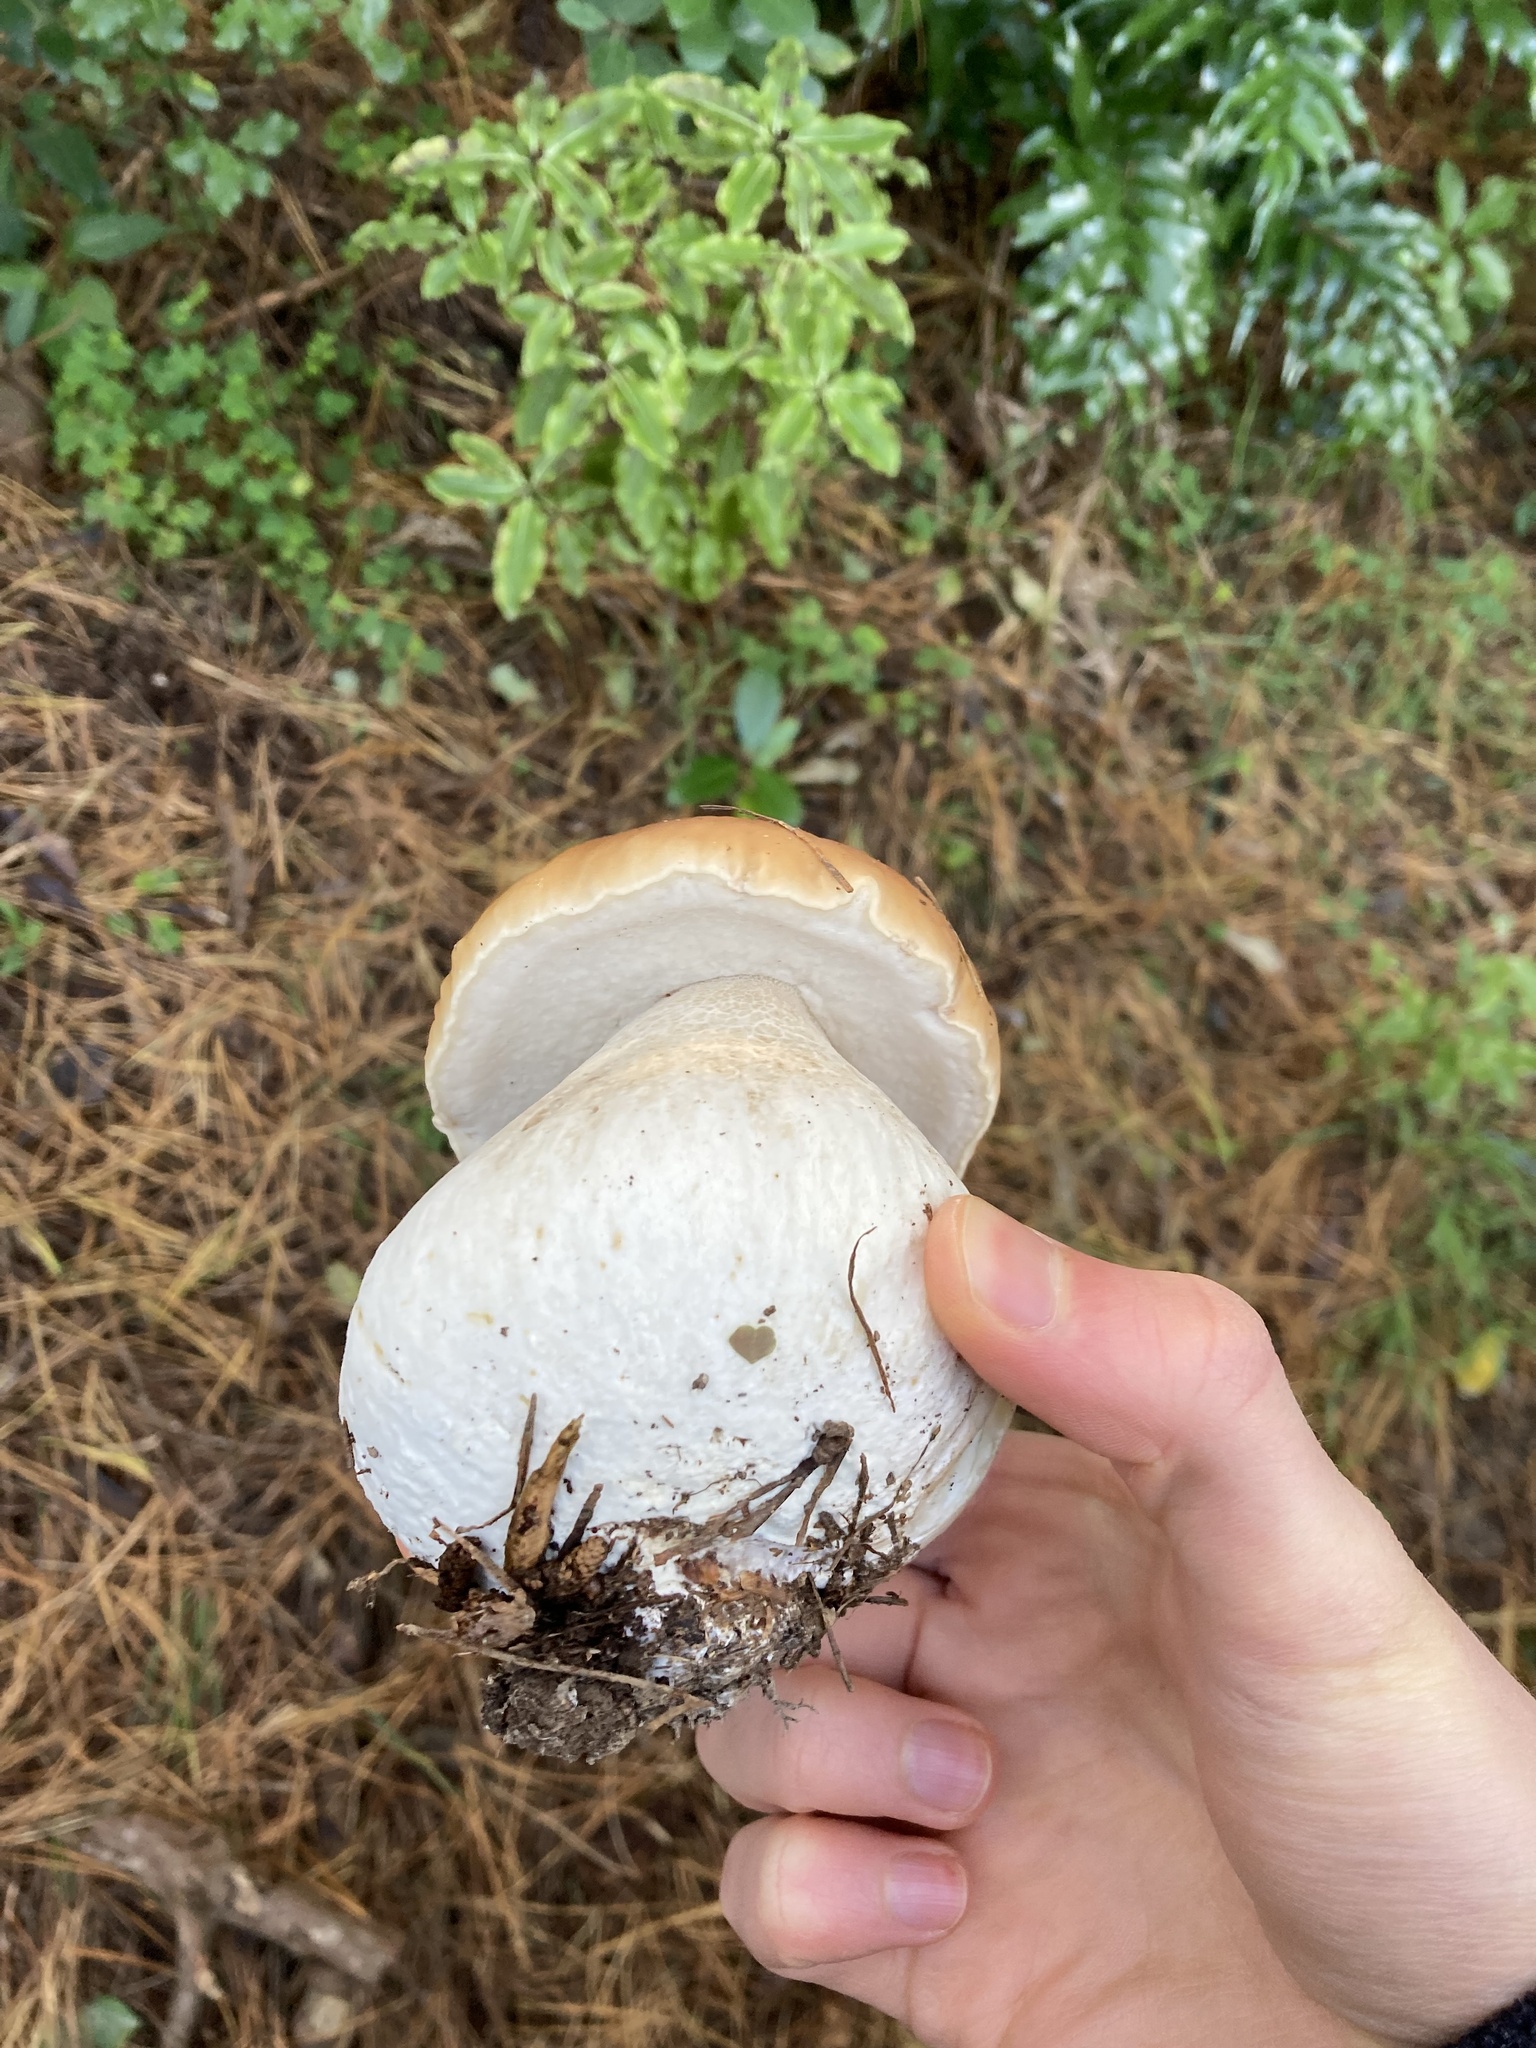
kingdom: Fungi
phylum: Basidiomycota
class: Agaricomycetes
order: Boletales
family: Boletaceae
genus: Boletus
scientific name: Boletus edulis
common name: Cep
